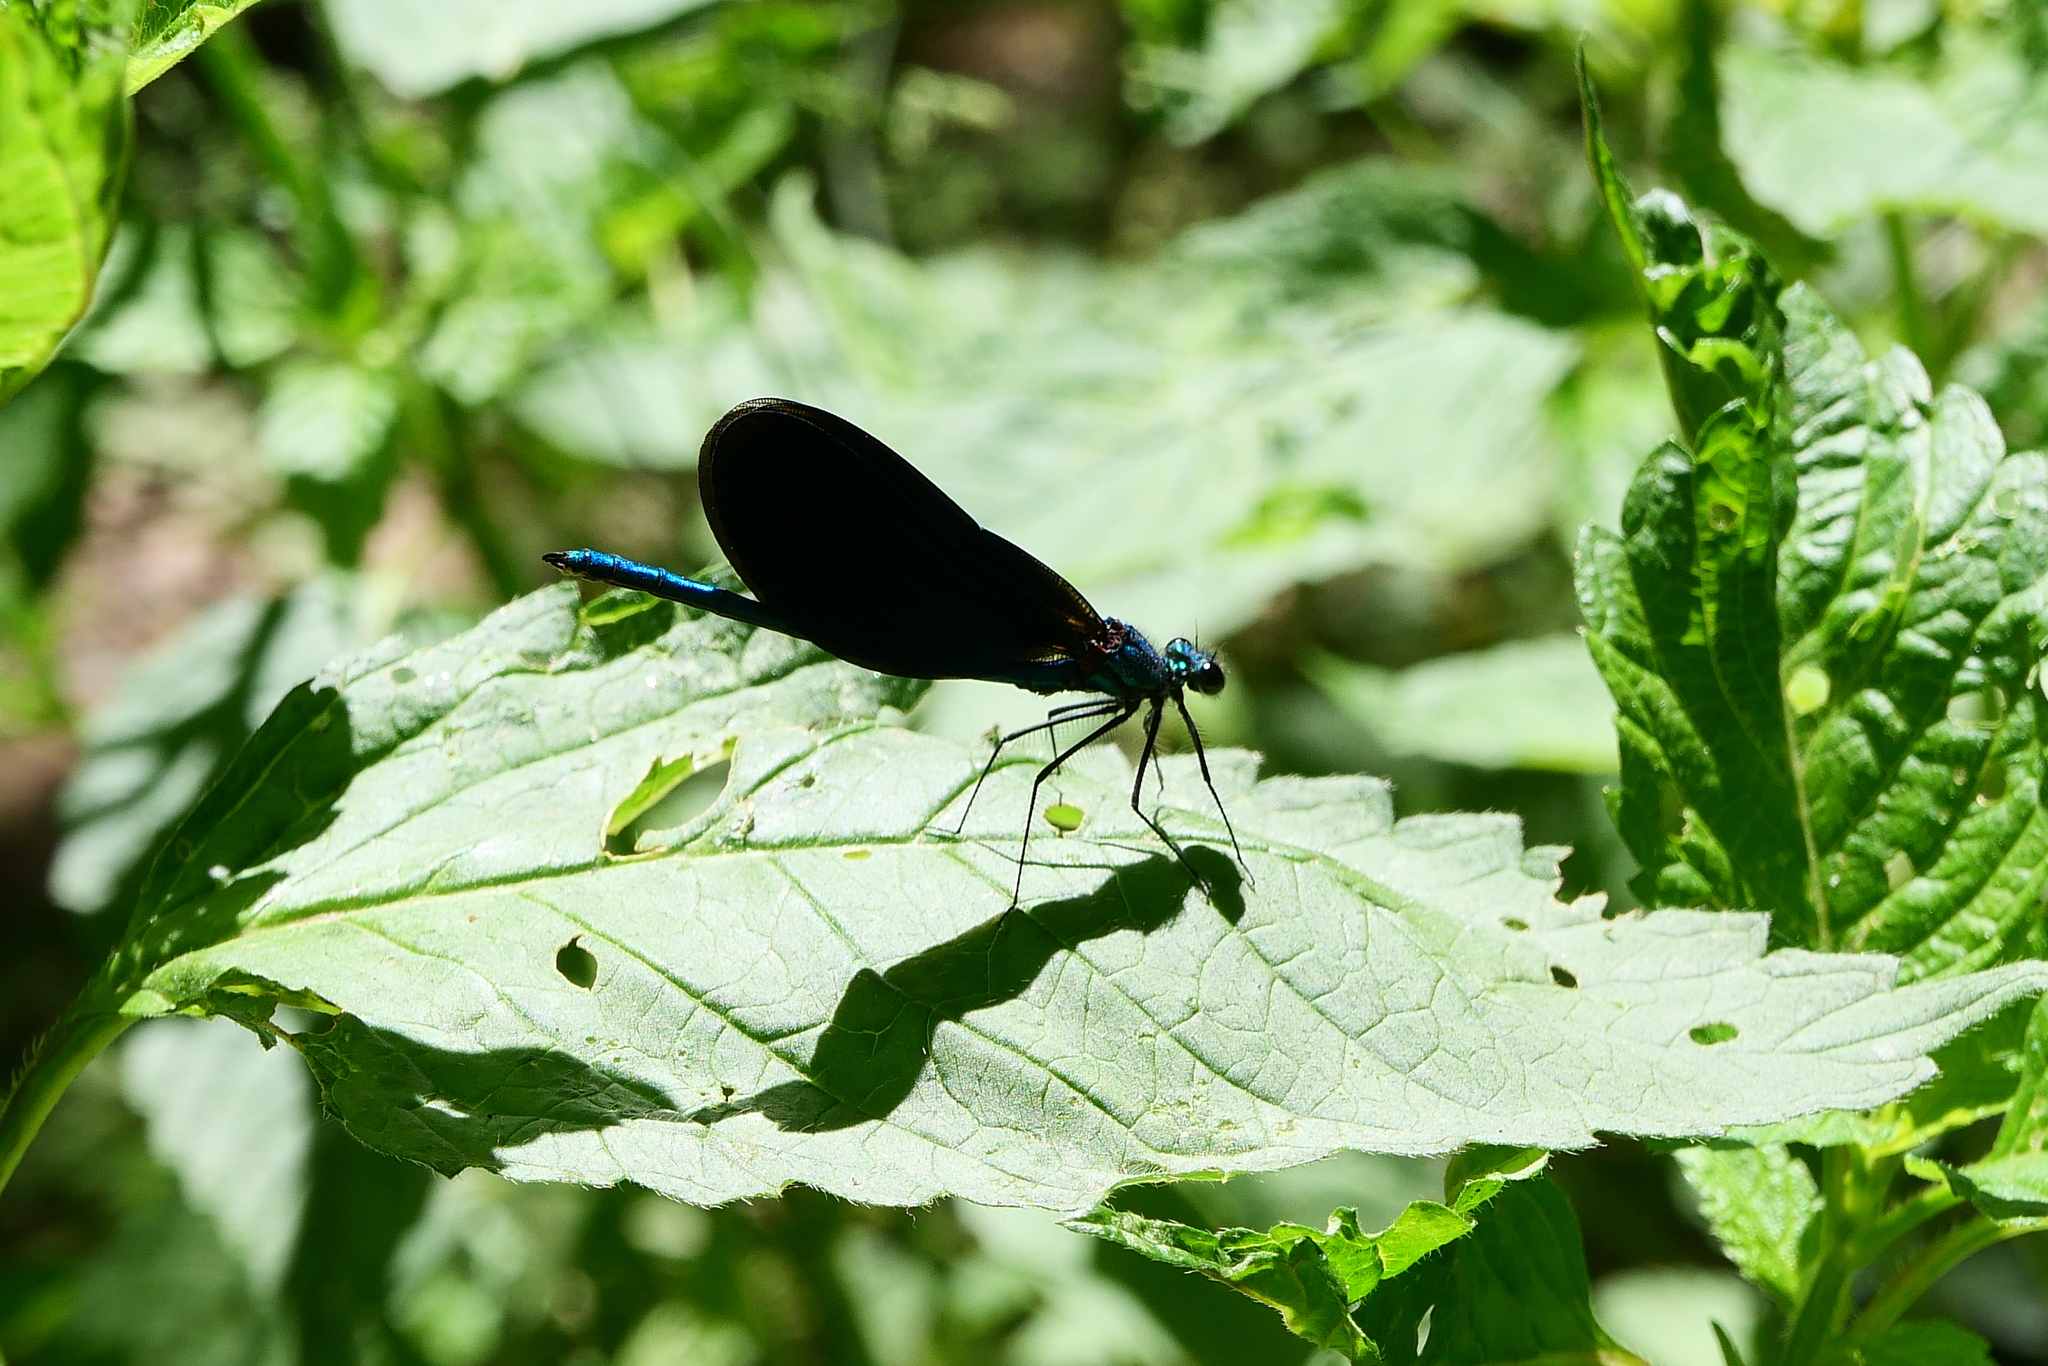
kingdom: Animalia
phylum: Arthropoda
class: Insecta
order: Odonata
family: Calopterygidae
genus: Calopteryx
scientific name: Calopteryx virgo
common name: Beautiful demoiselle
